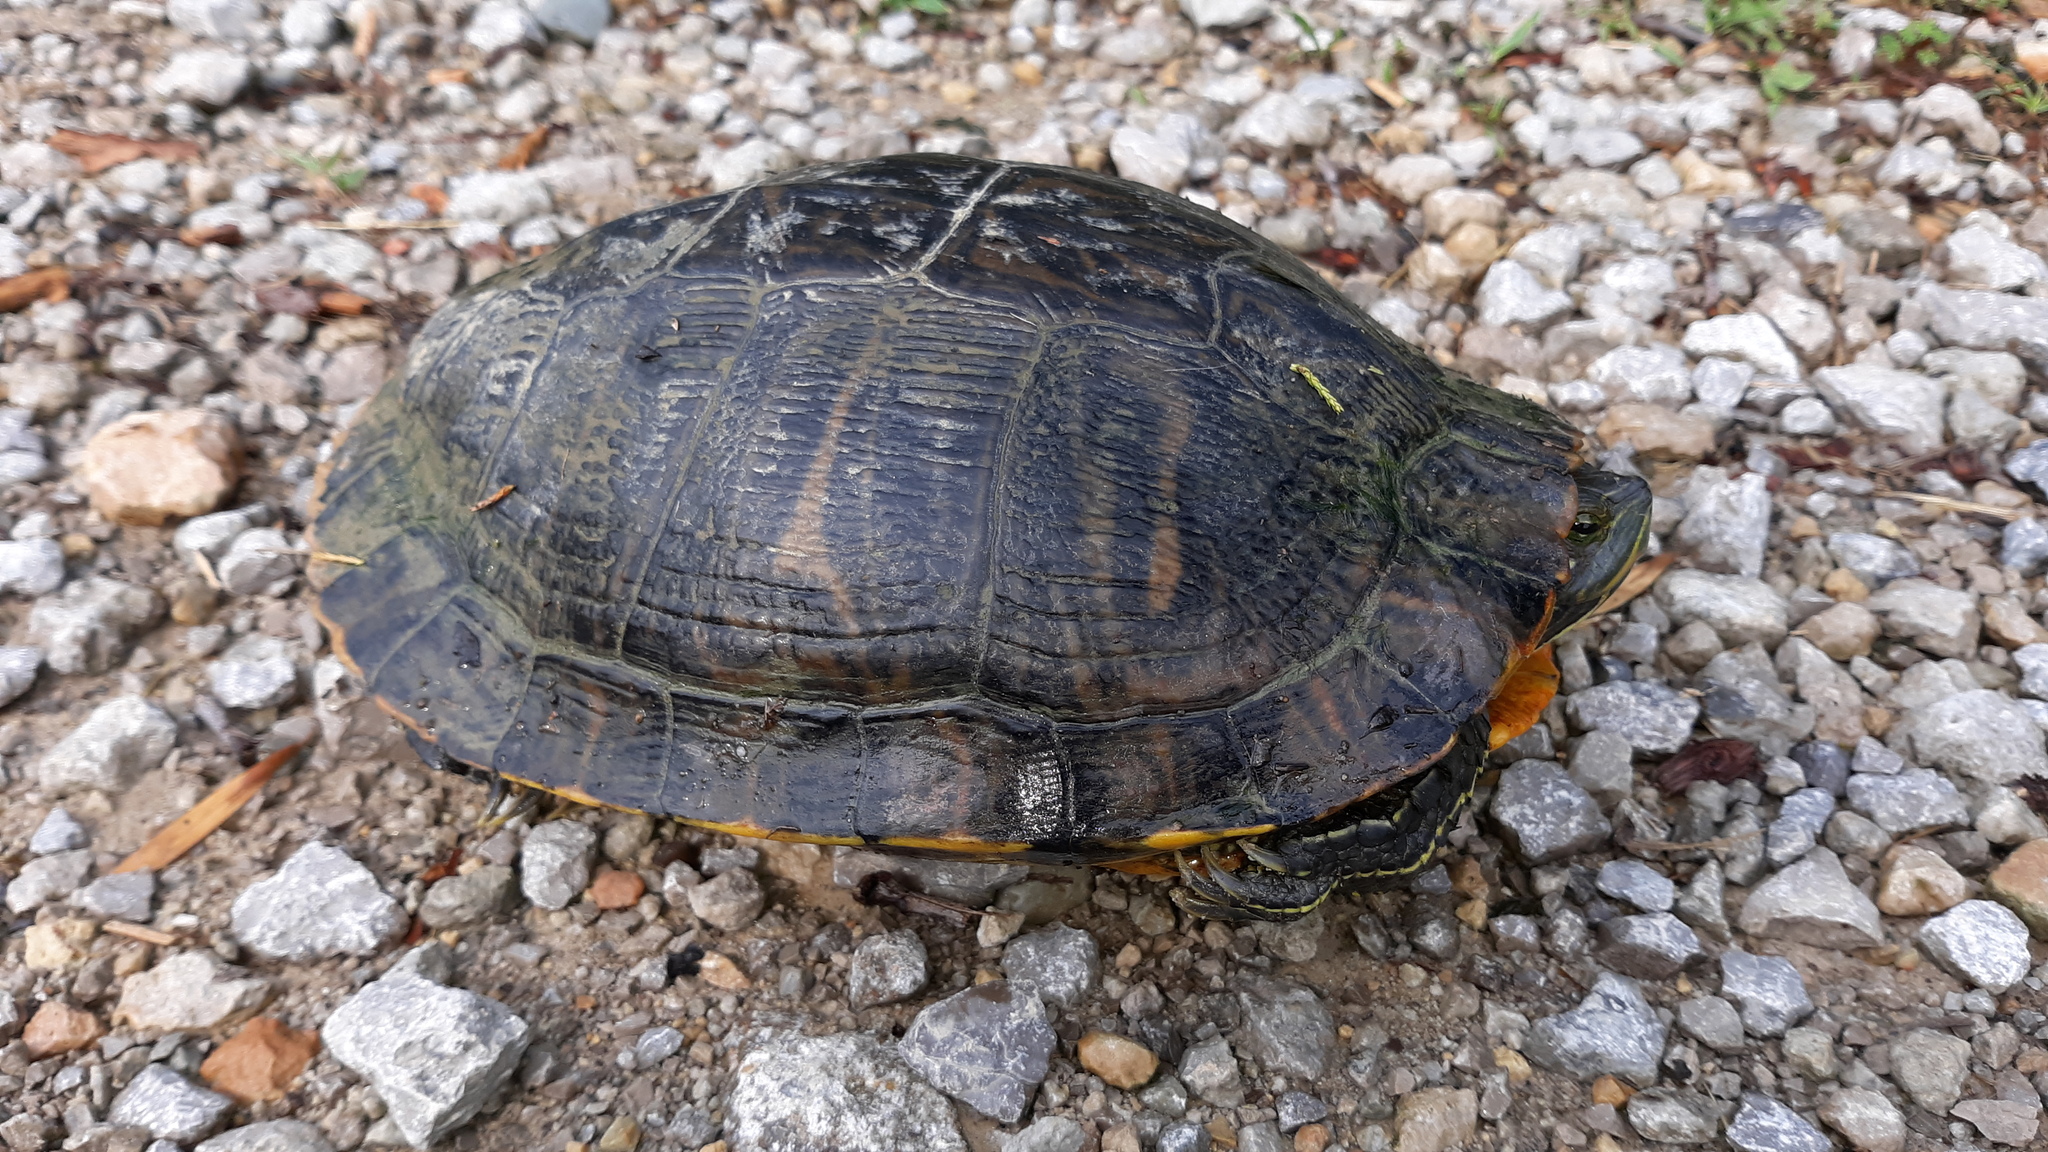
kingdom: Animalia
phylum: Chordata
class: Testudines
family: Emydidae
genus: Trachemys
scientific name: Trachemys scripta
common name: Slider
